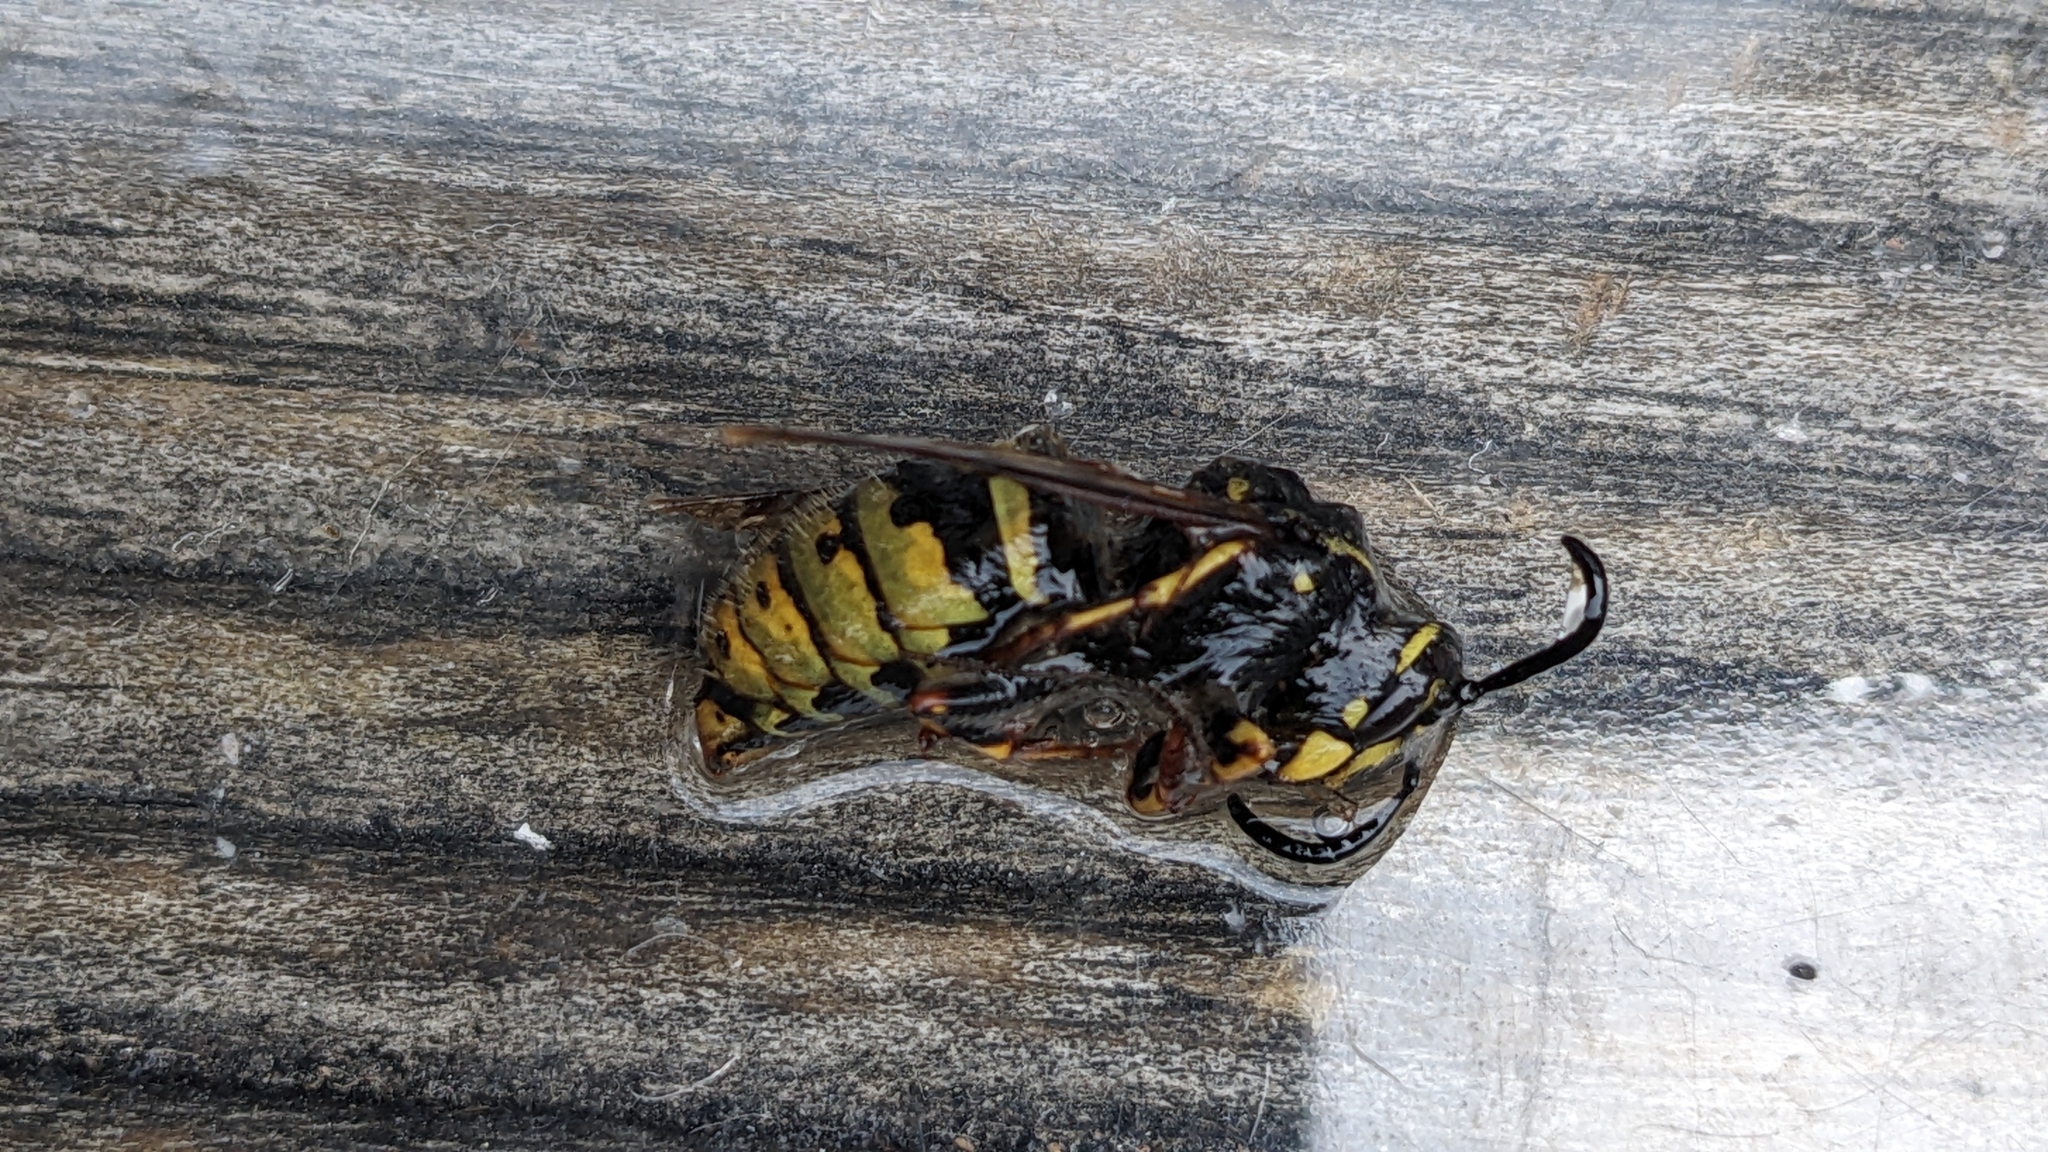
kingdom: Animalia
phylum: Arthropoda
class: Insecta
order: Hymenoptera
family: Vespidae
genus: Vespula
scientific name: Vespula vulgaris
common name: Common wasp
